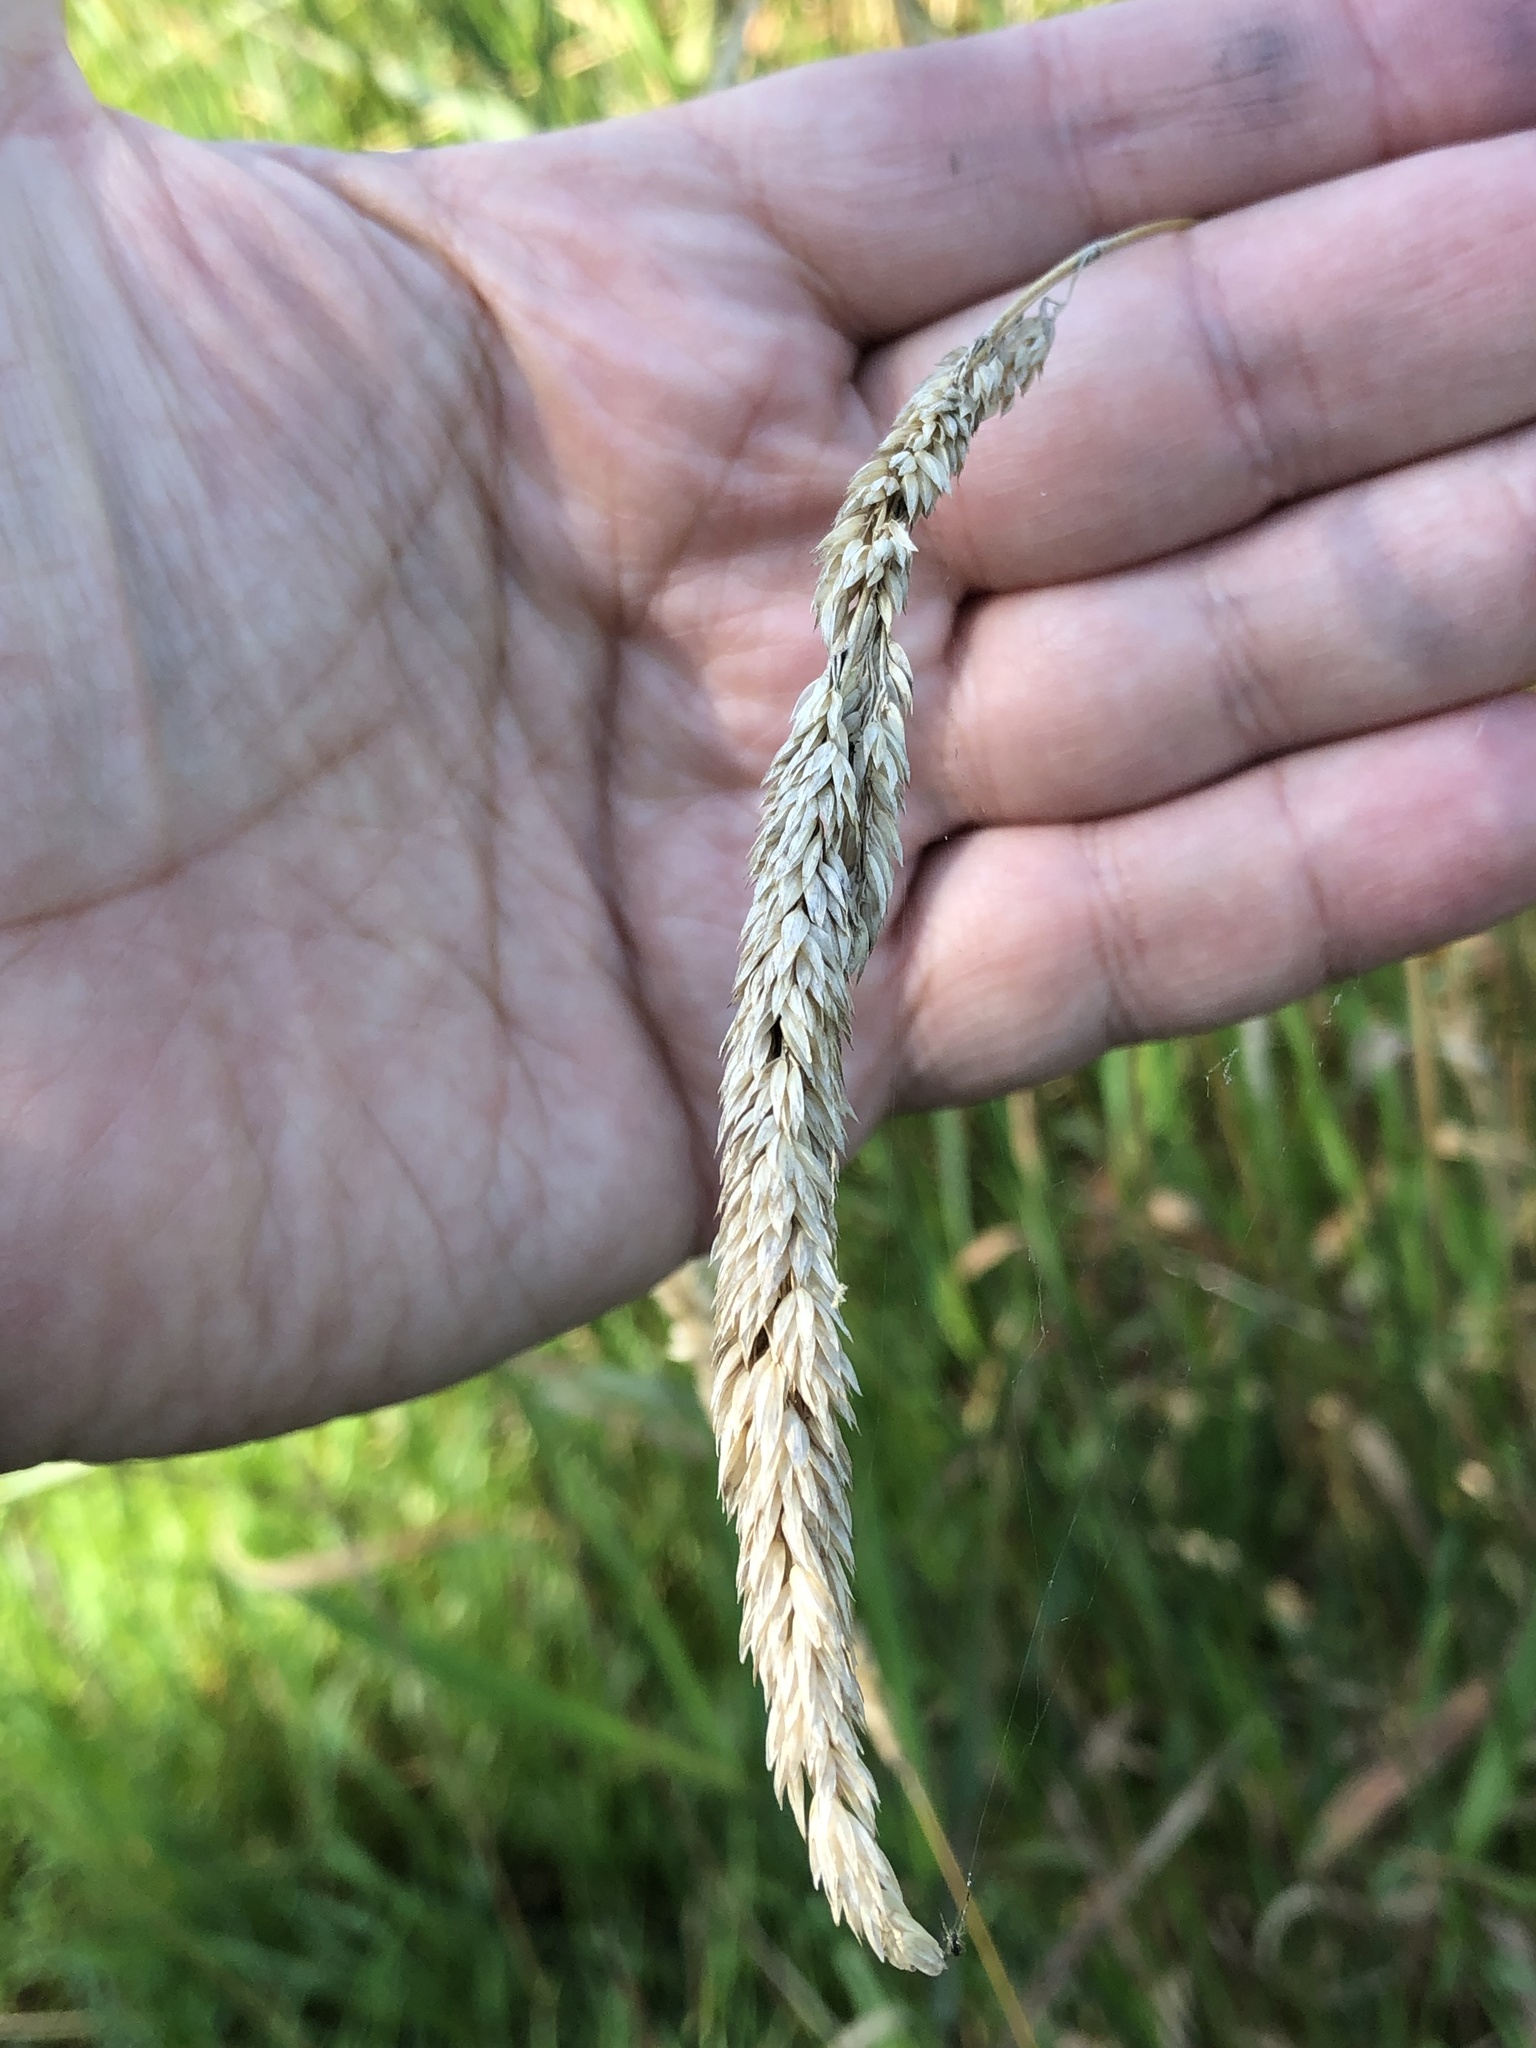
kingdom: Plantae
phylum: Tracheophyta
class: Liliopsida
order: Poales
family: Poaceae
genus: Phalaris
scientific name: Phalaris arundinacea
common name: Reed canary-grass
